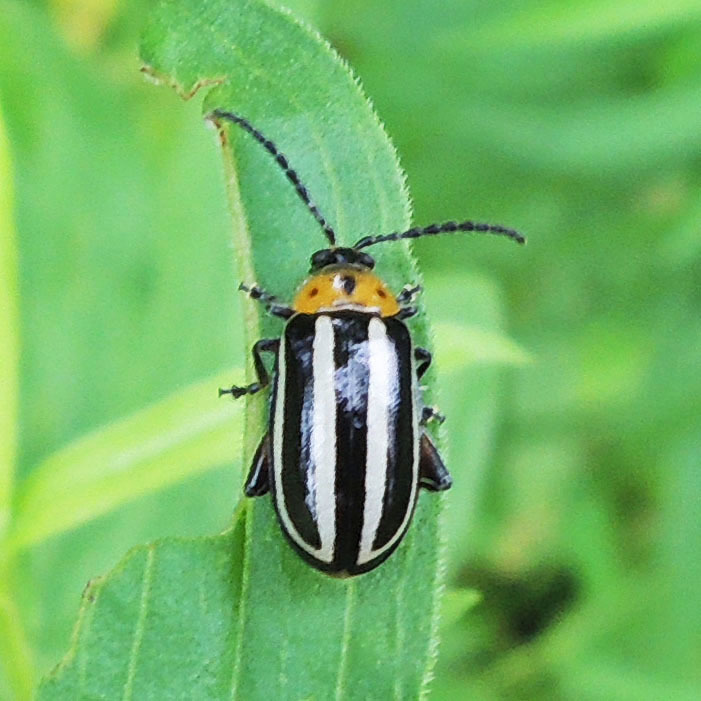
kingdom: Animalia
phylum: Arthropoda
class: Insecta
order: Coleoptera
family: Chrysomelidae
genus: Disonycha
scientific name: Disonycha glabrata
